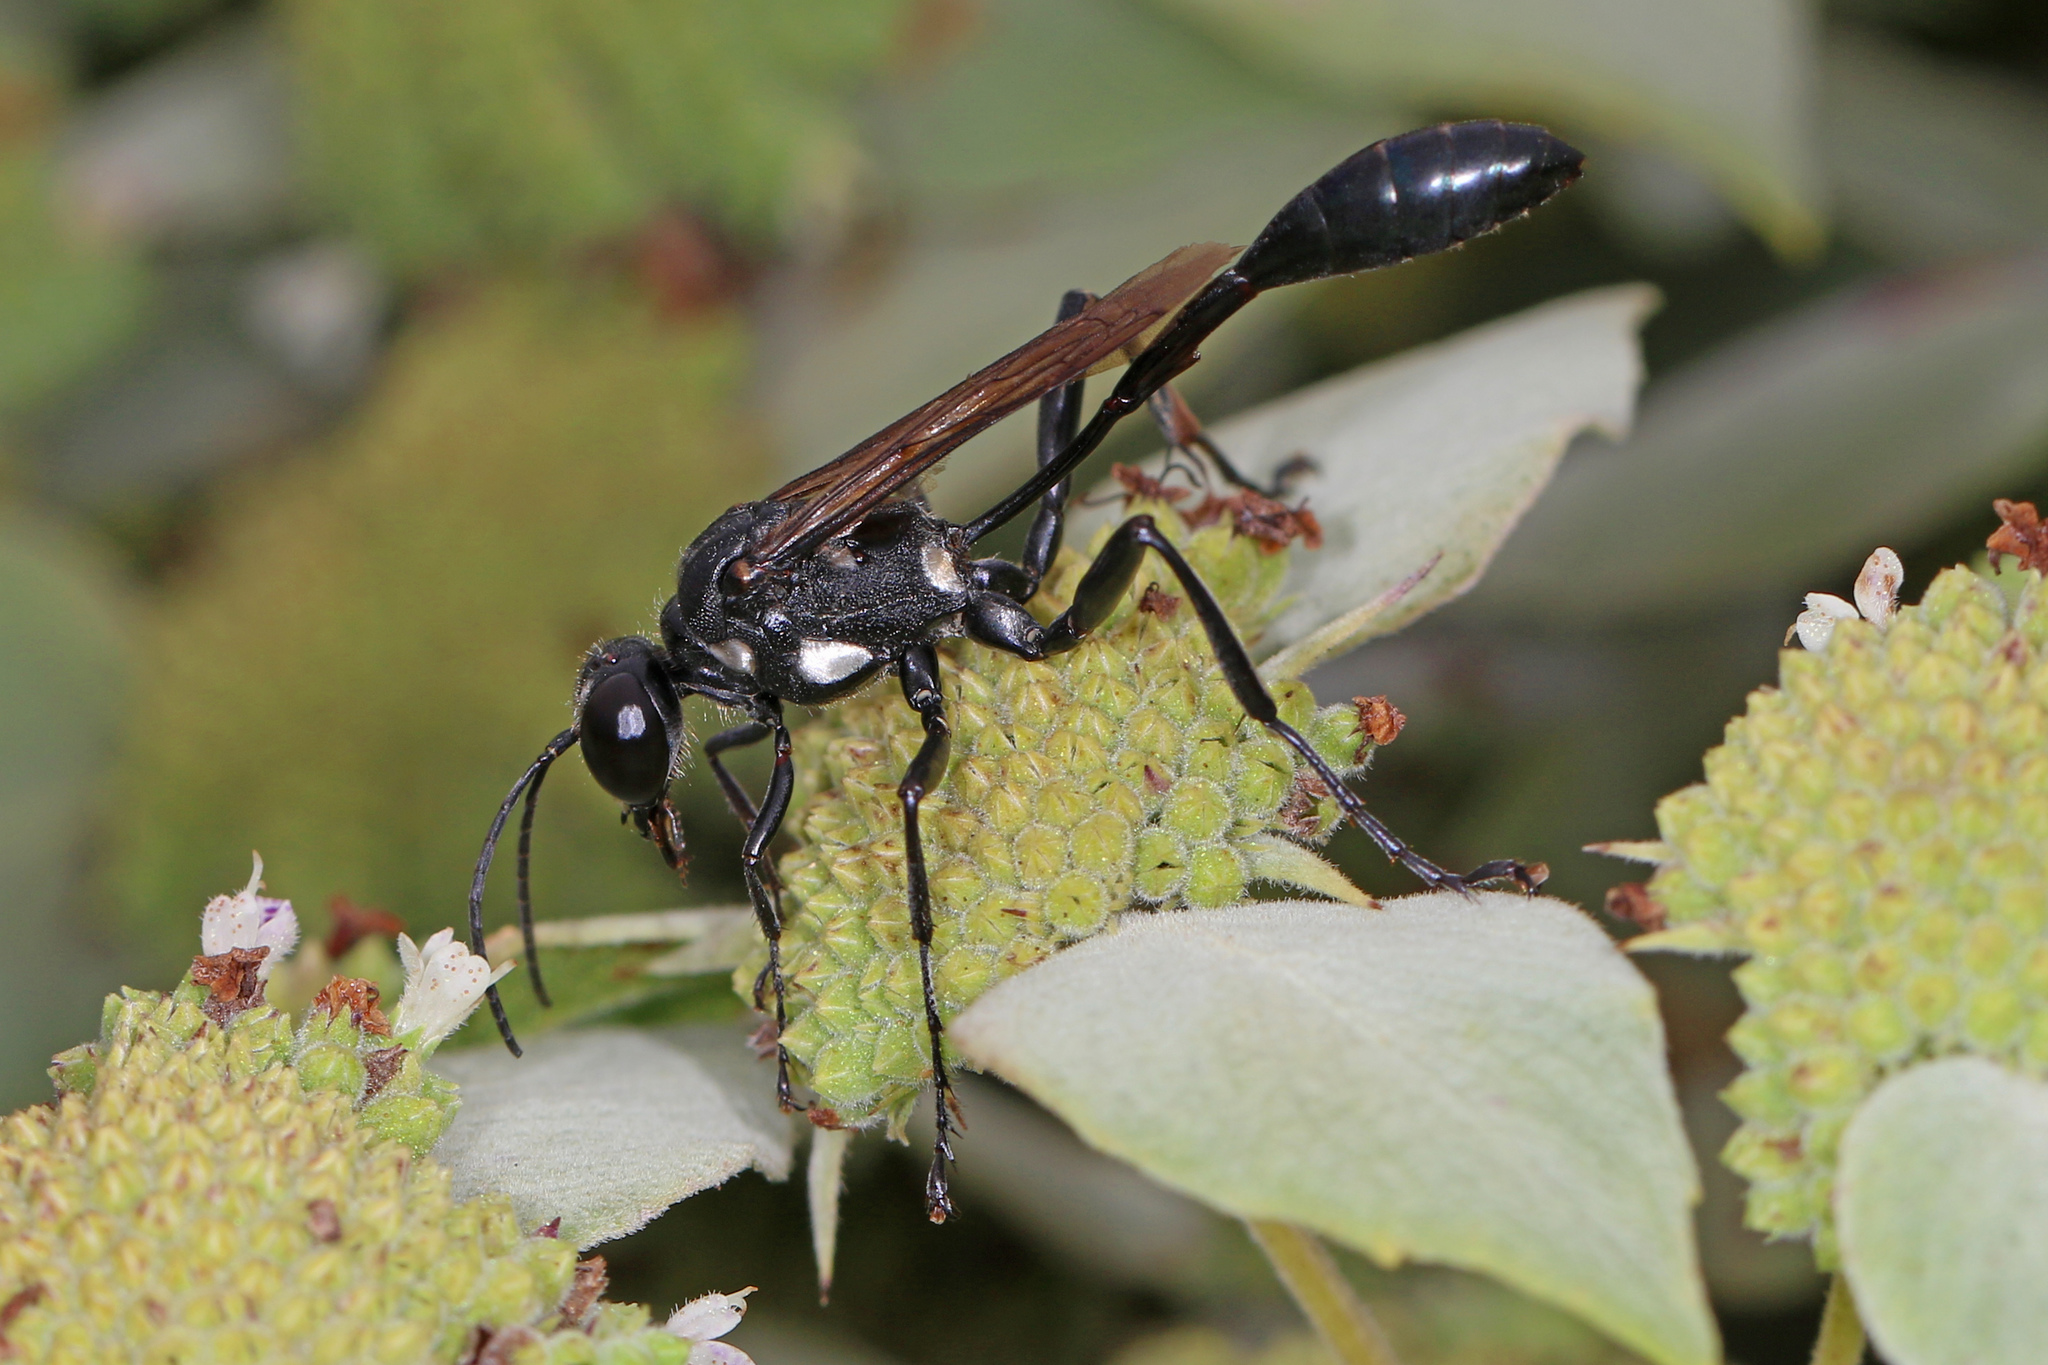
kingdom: Animalia
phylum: Arthropoda
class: Insecta
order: Hymenoptera
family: Sphecidae
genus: Eremnophila
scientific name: Eremnophila aureonotata
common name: Gold-marked thread-waisted wasp
